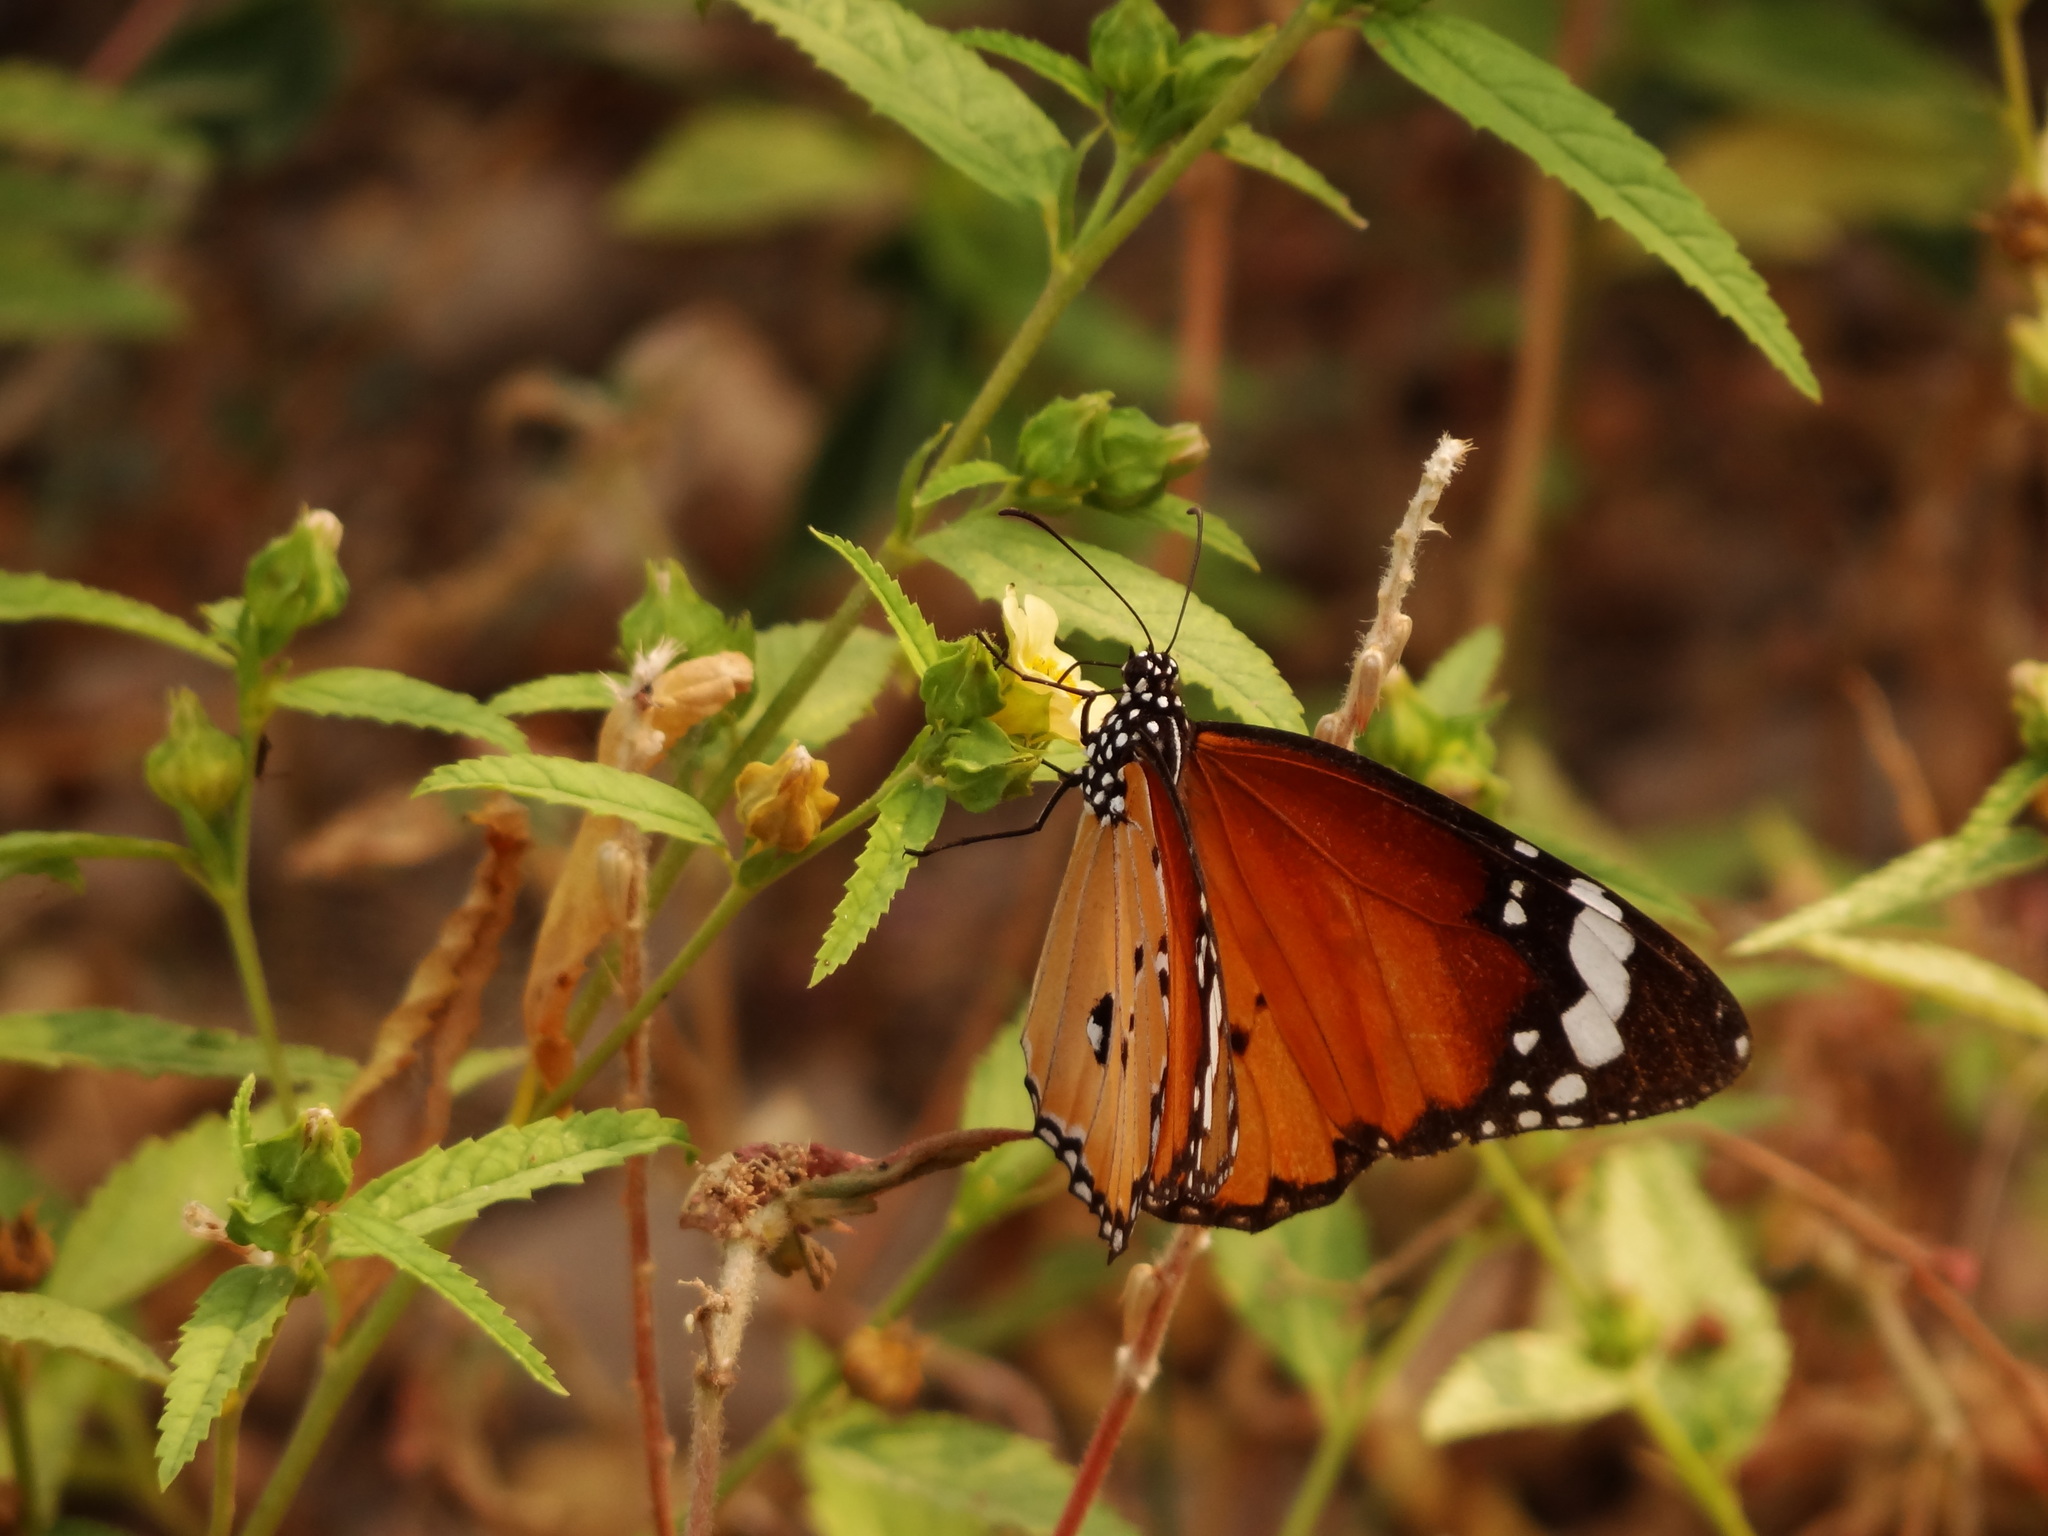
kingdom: Animalia
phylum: Arthropoda
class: Insecta
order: Lepidoptera
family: Nymphalidae
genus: Danaus
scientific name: Danaus chrysippus
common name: Plain tiger
